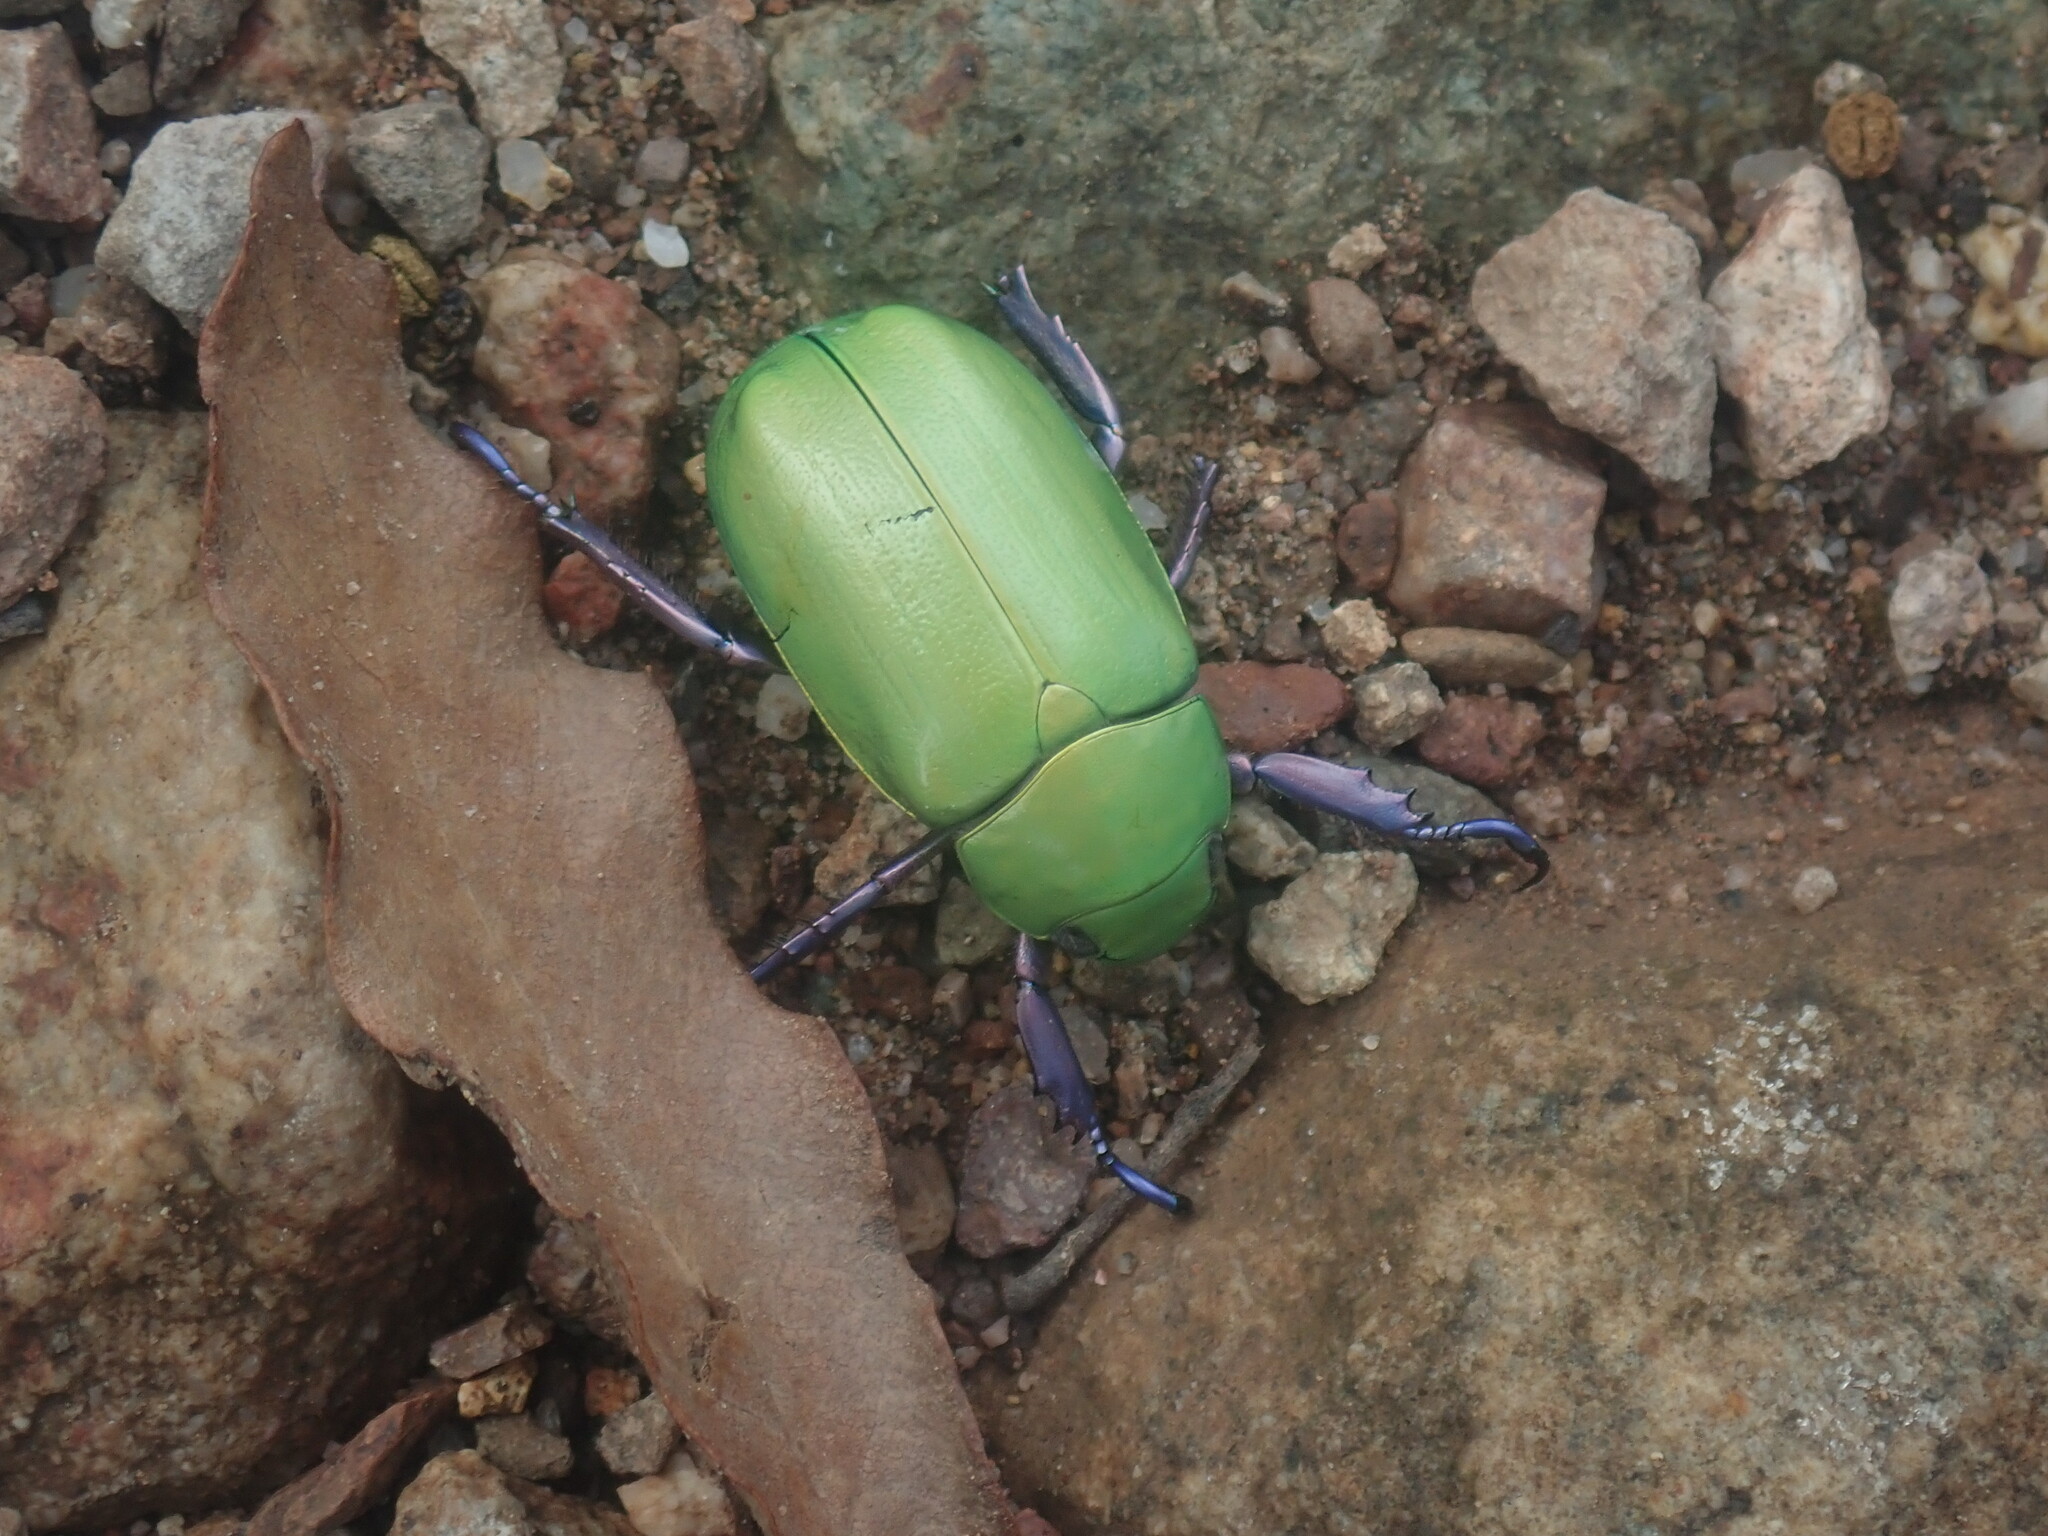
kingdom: Animalia
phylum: Arthropoda
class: Insecta
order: Coleoptera
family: Scarabaeidae
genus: Chrysina
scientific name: Chrysina beyeri
